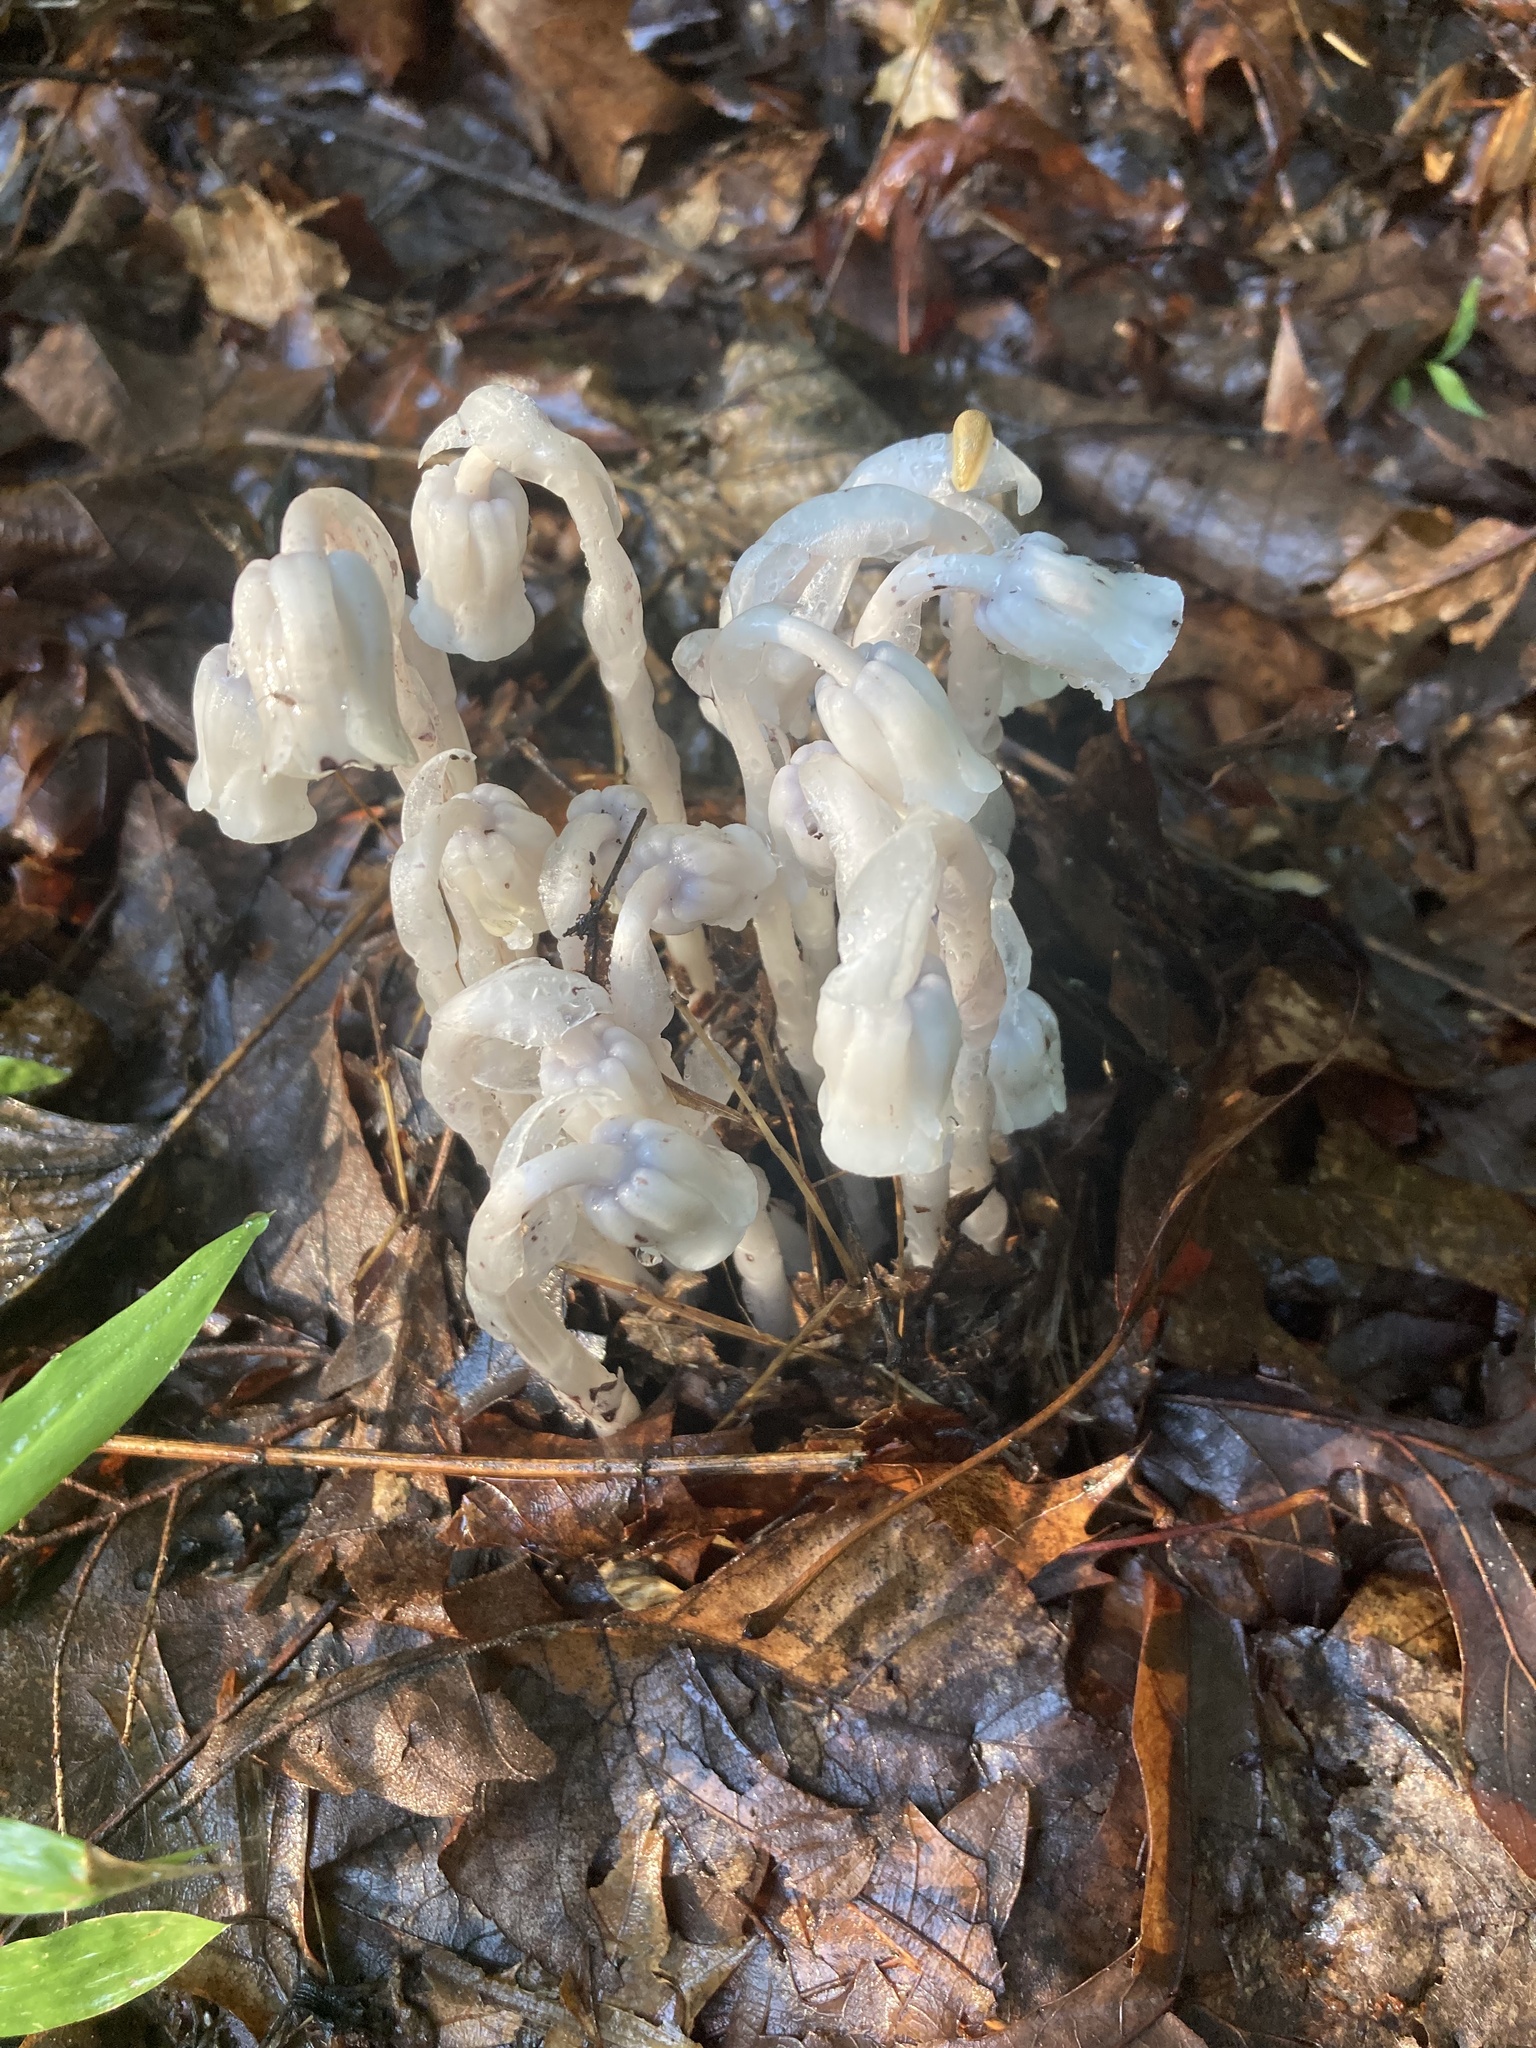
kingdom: Plantae
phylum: Tracheophyta
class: Magnoliopsida
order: Ericales
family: Ericaceae
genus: Monotropa
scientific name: Monotropa uniflora
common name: Convulsion root
